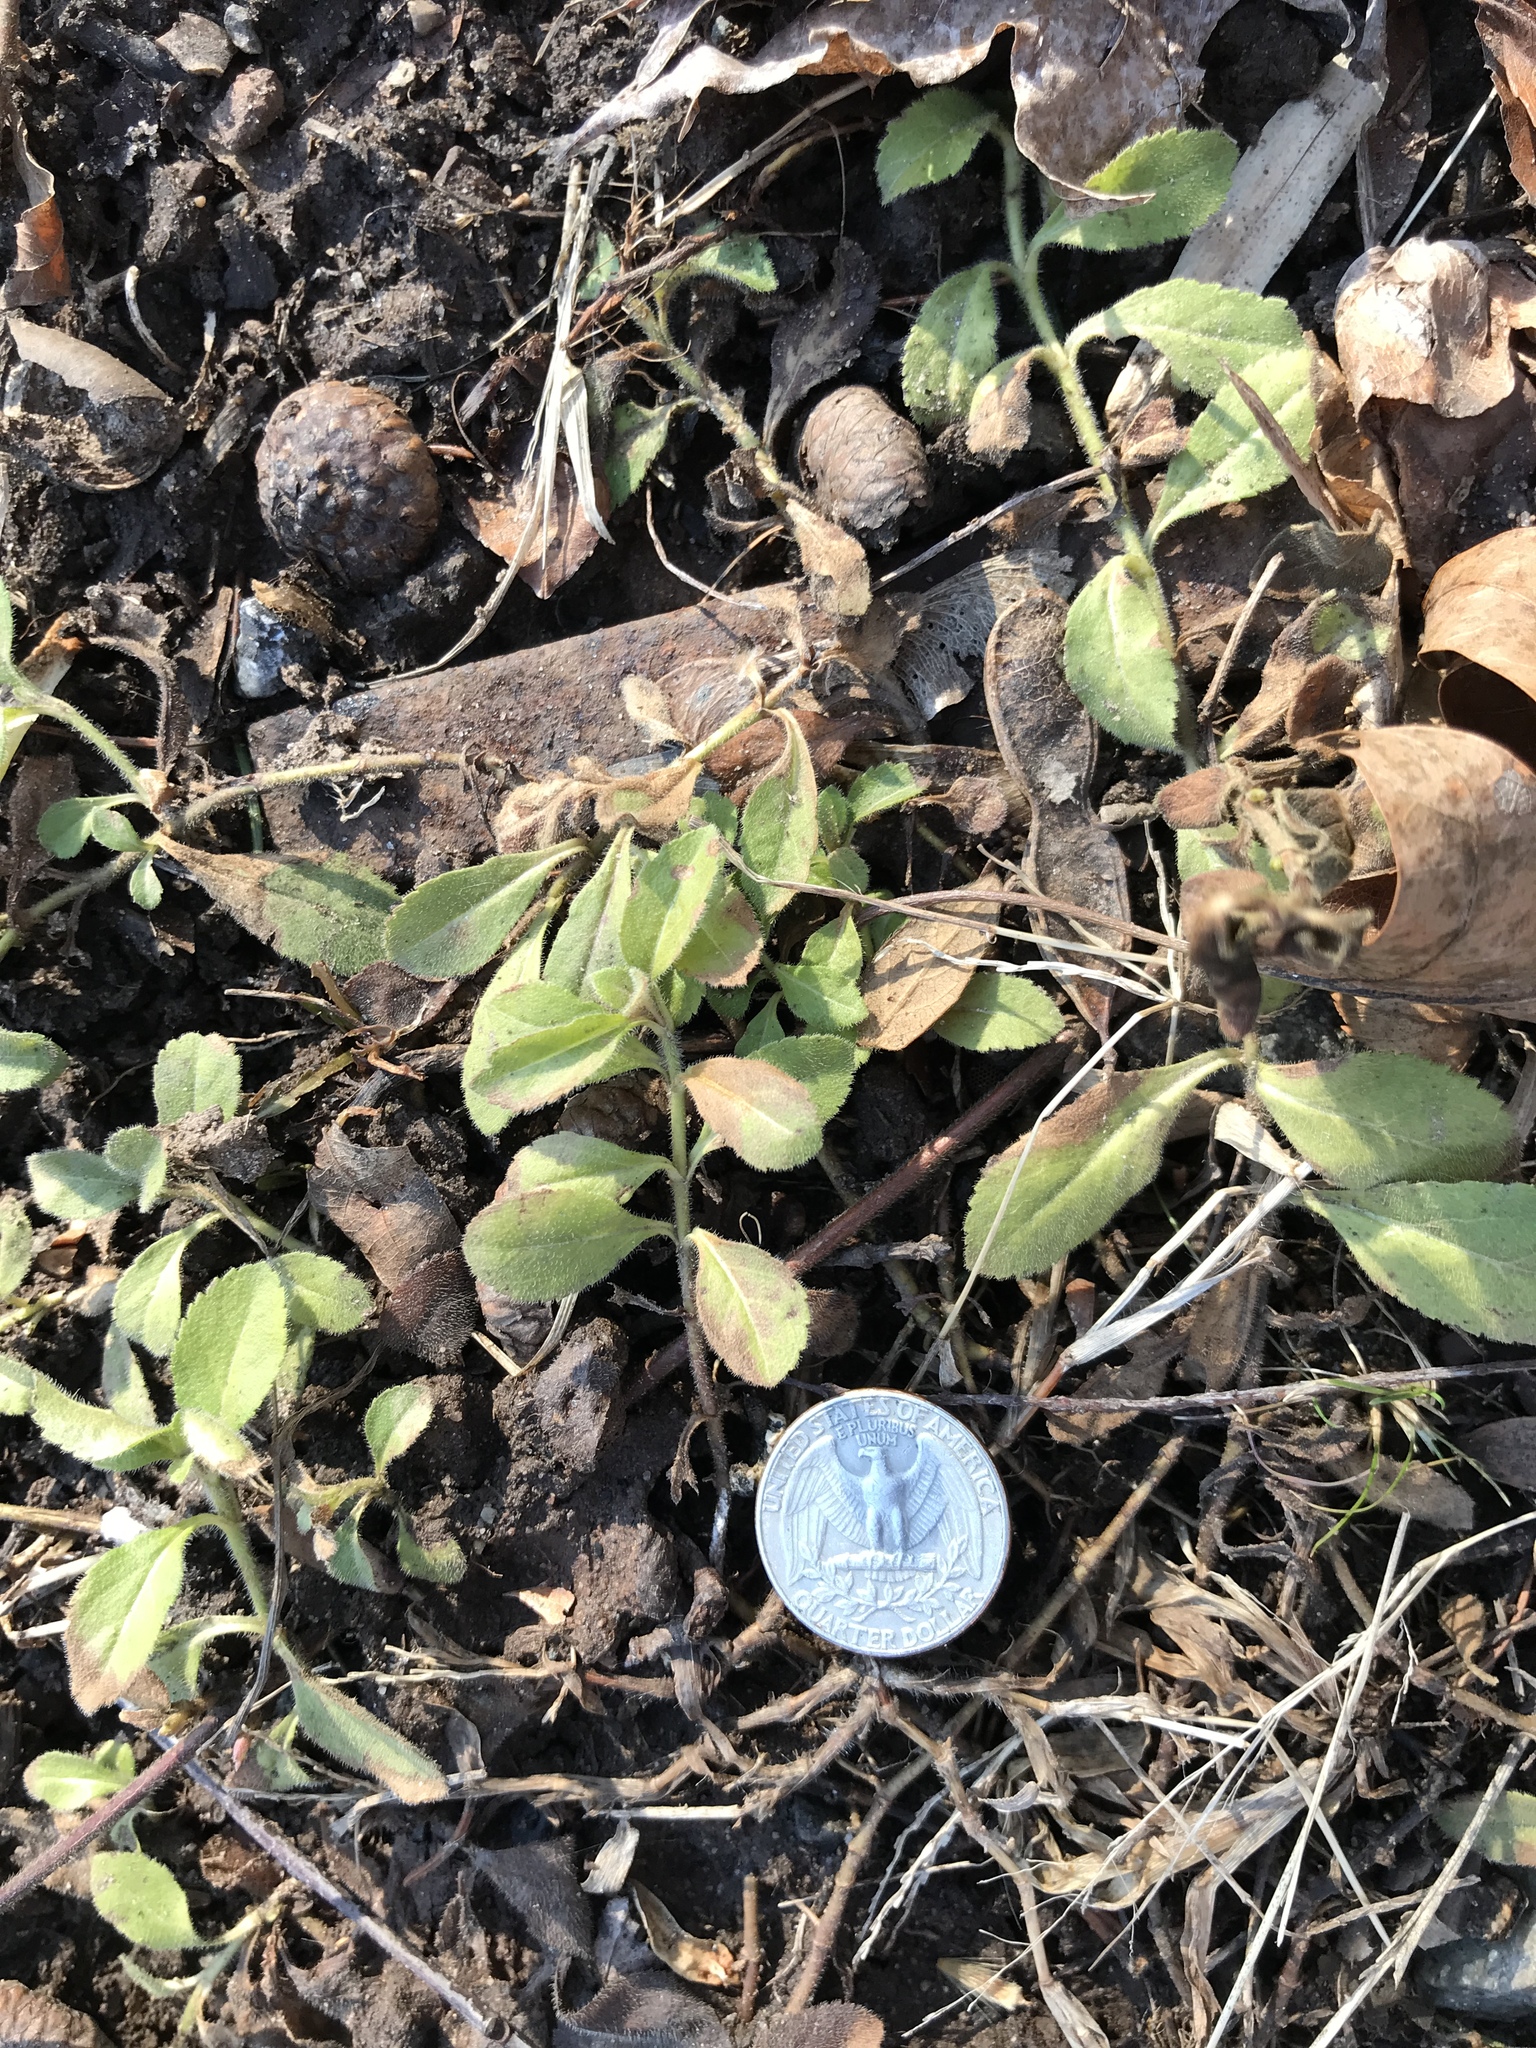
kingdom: Plantae
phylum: Tracheophyta
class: Magnoliopsida
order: Lamiales
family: Plantaginaceae
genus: Veronica
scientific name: Veronica officinalis
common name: Common speedwell
